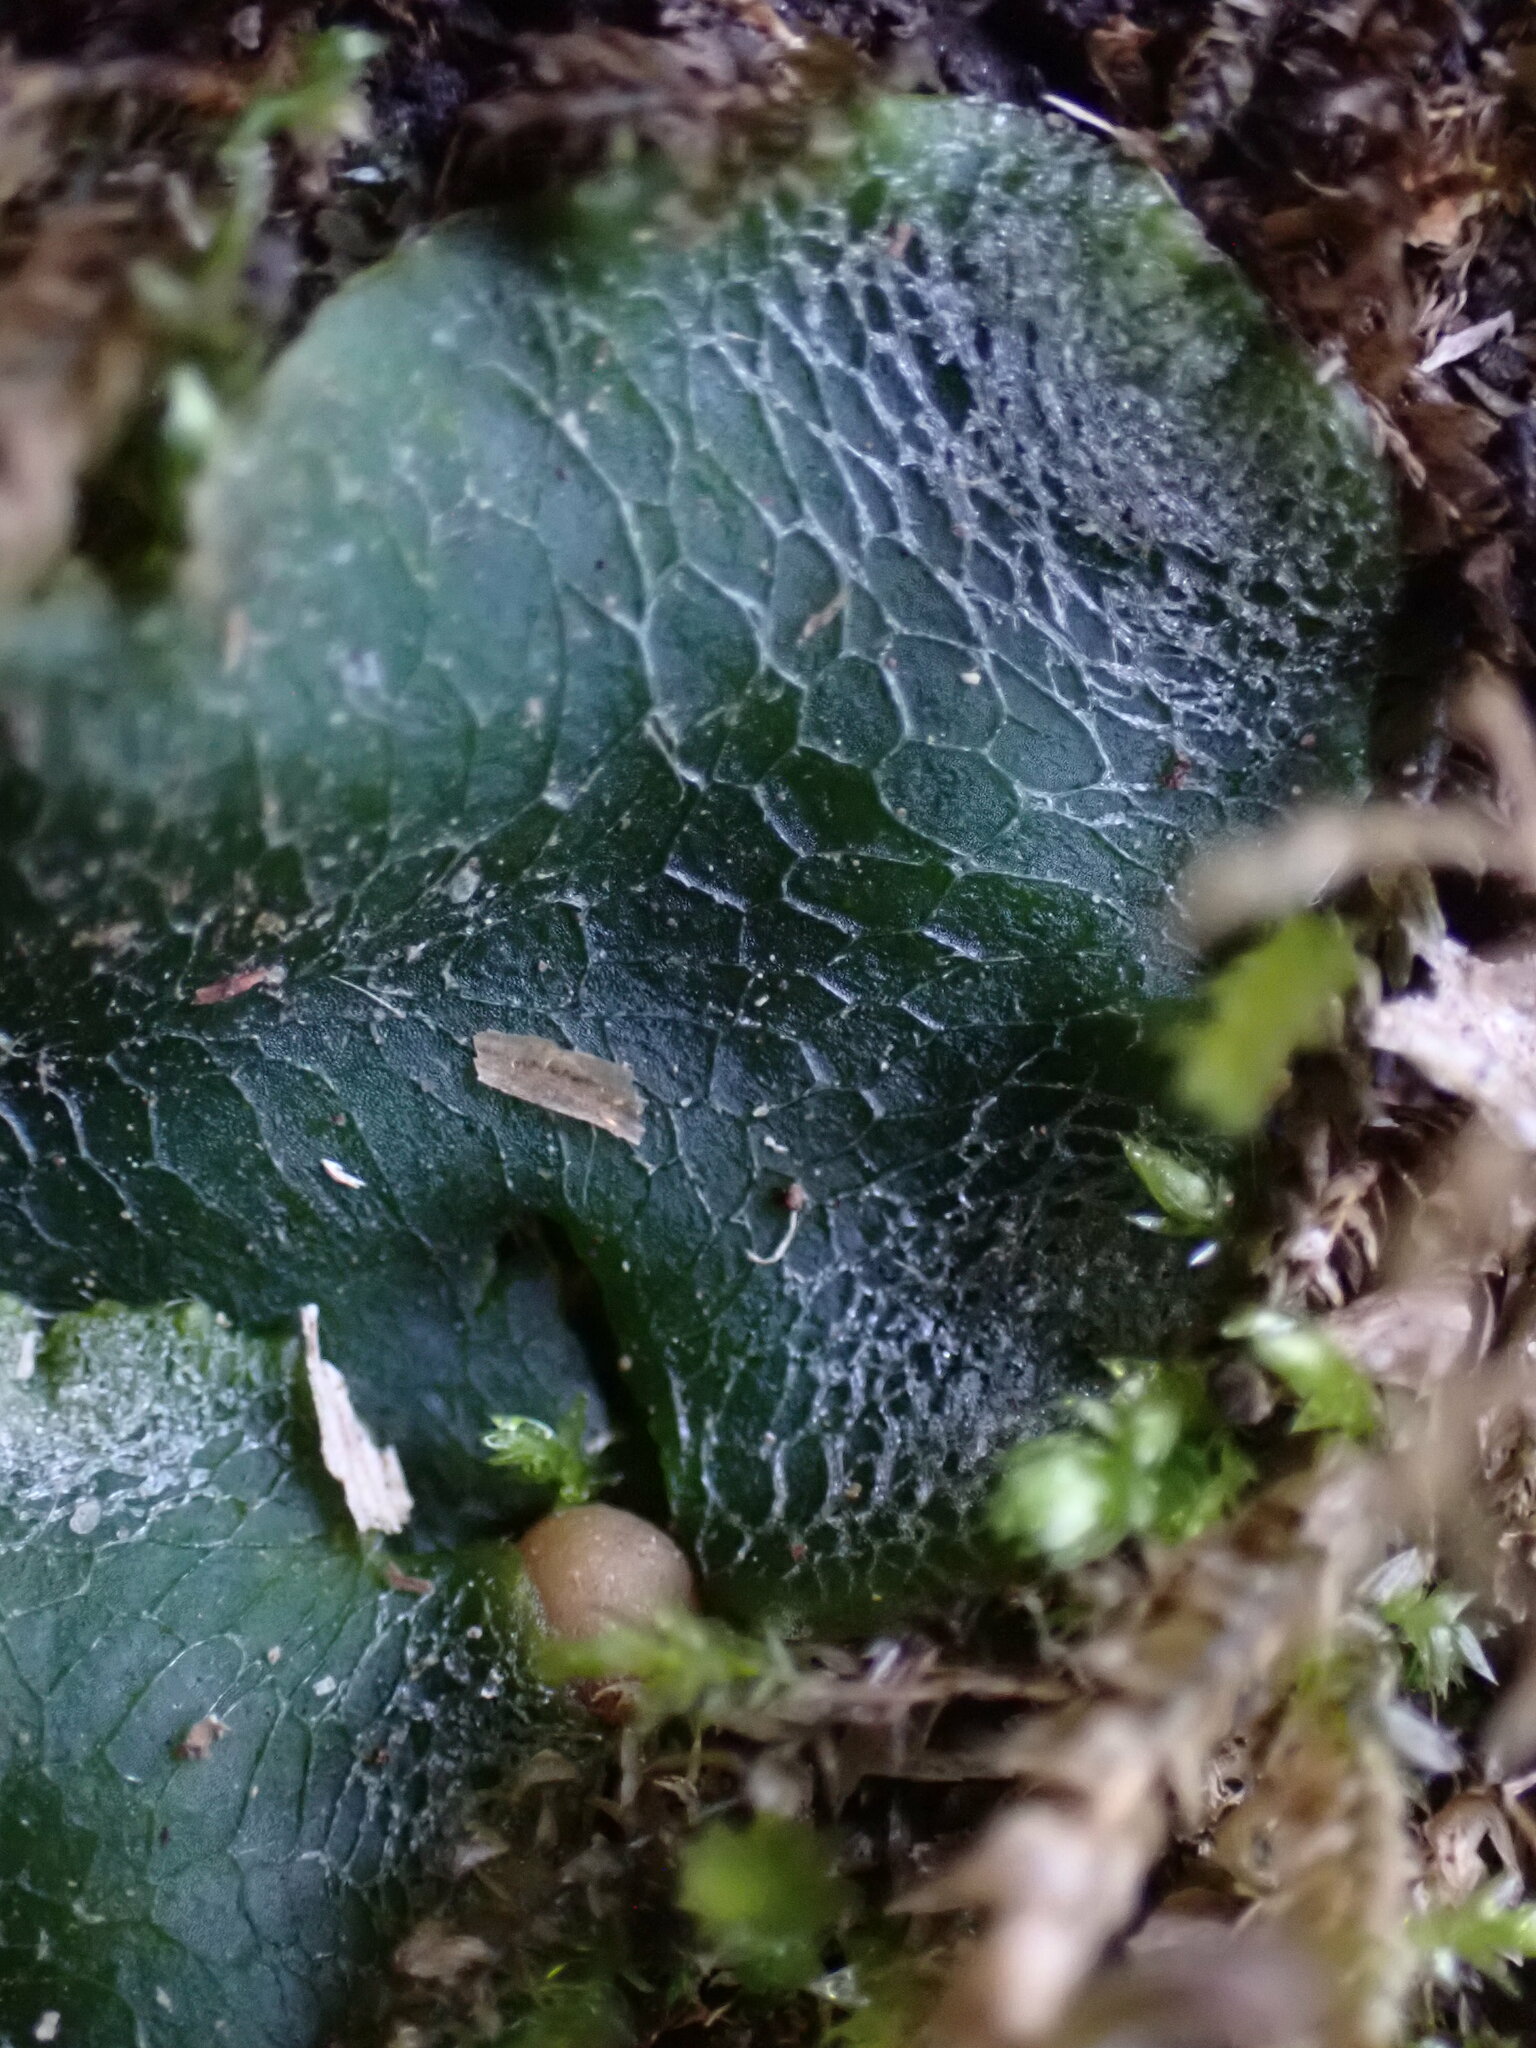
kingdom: Plantae
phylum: Marchantiophyta
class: Marchantiopsida
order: Marchantiales
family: Dumortieraceae
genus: Dumortiera
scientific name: Dumortiera hirsuta
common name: Dumortier's liverwort
